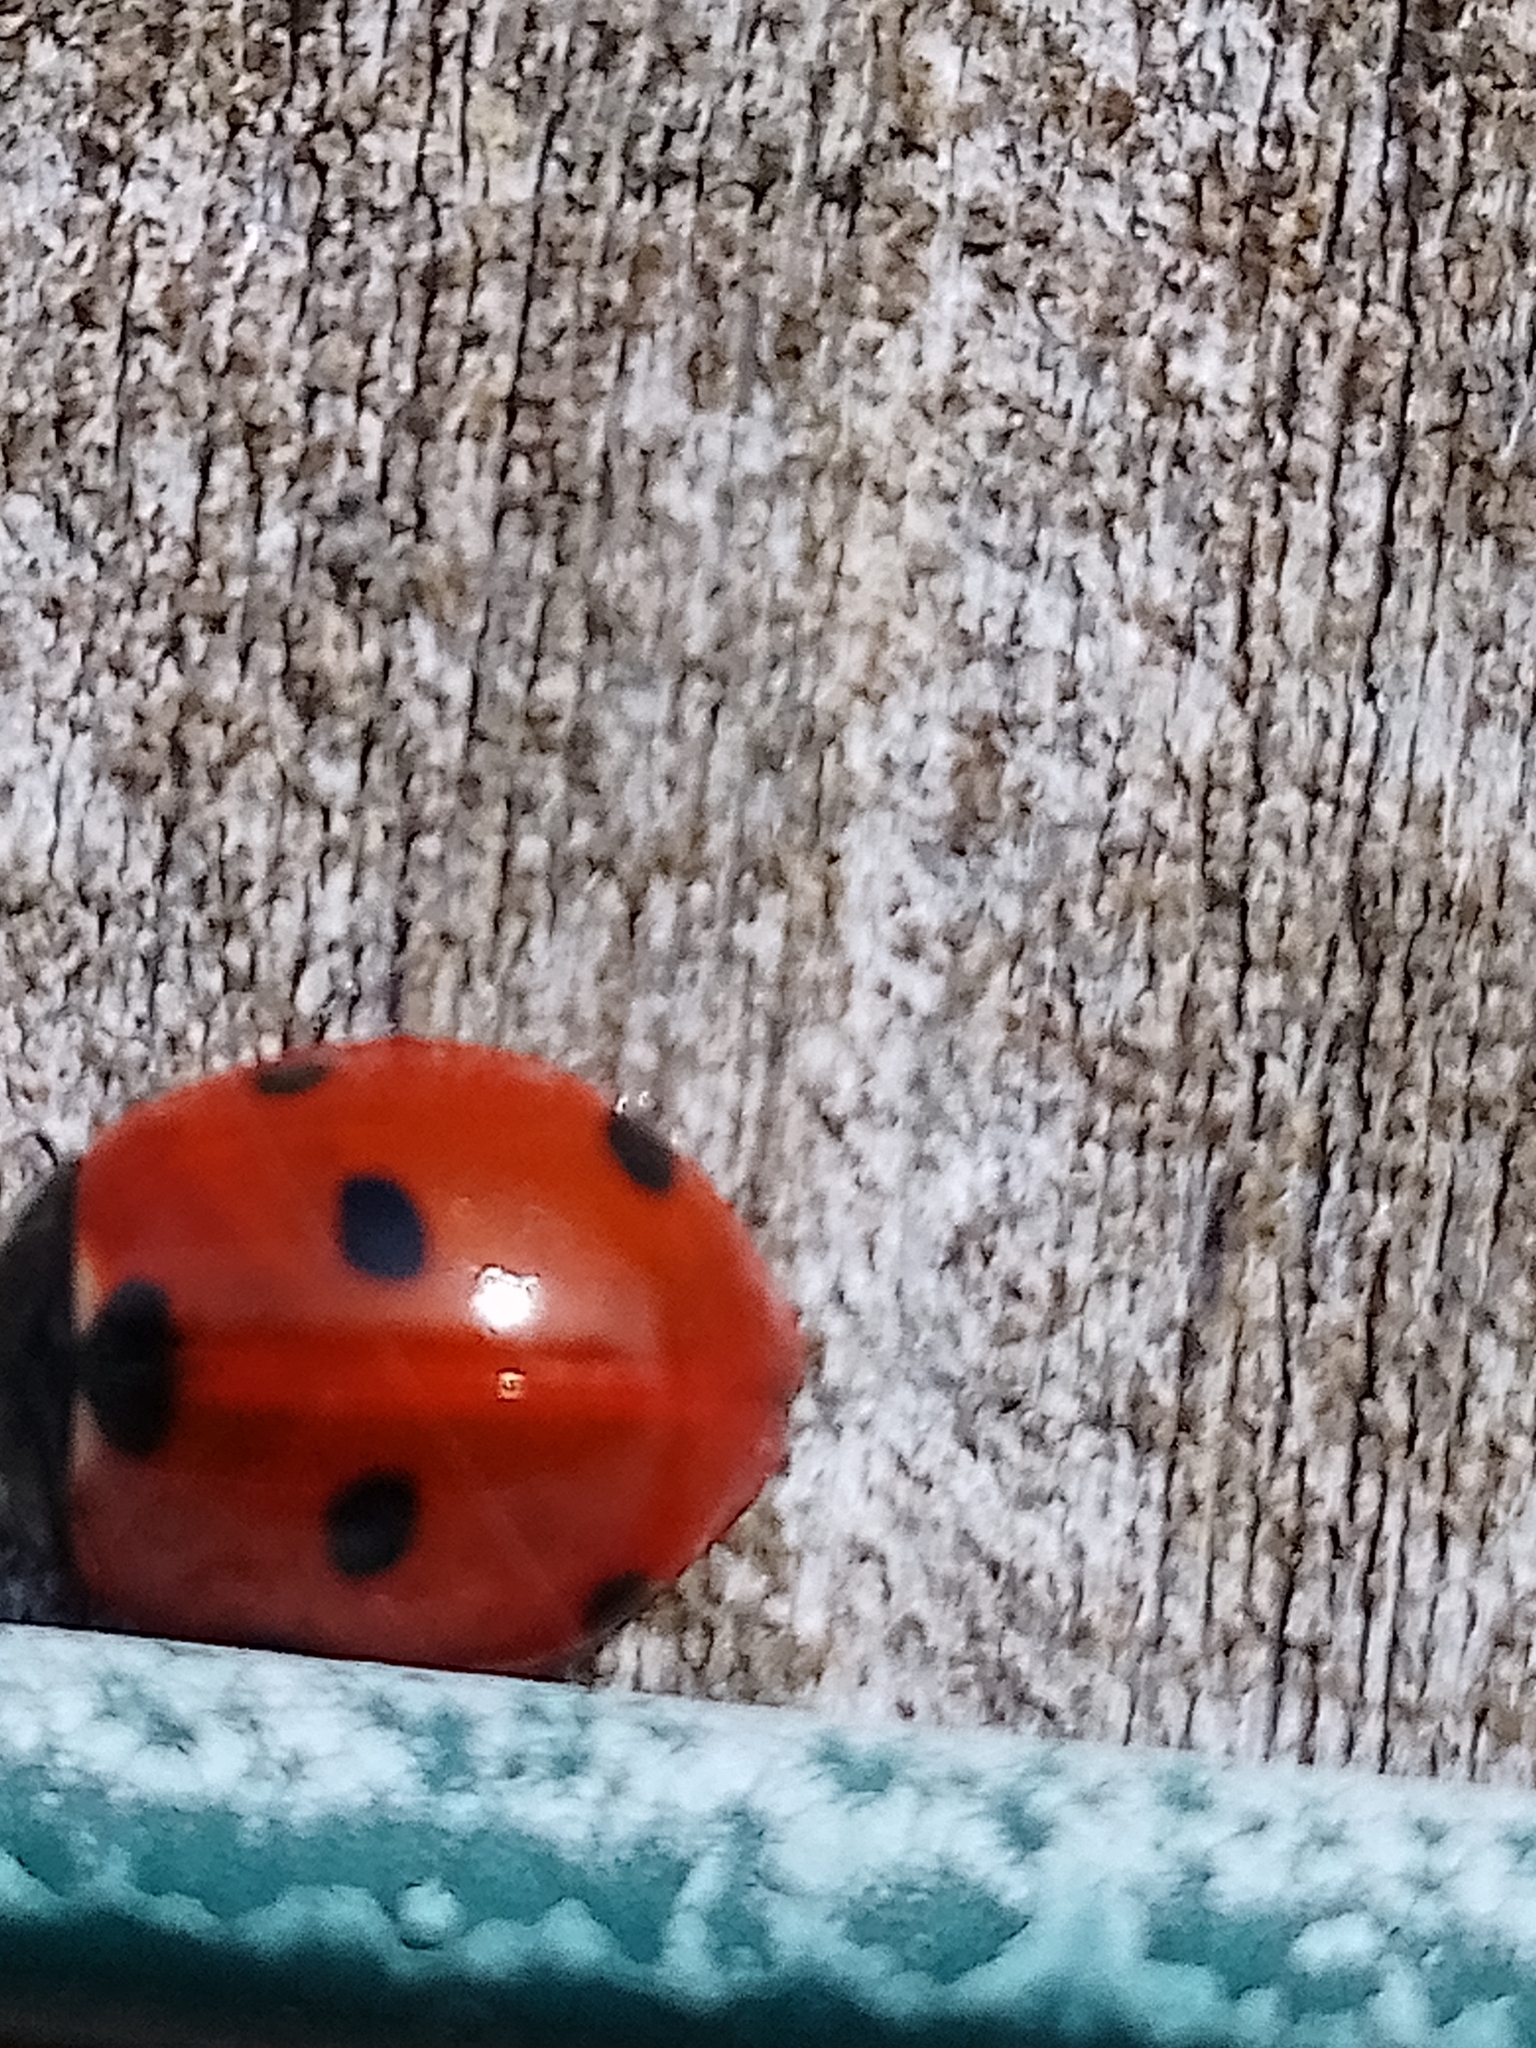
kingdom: Animalia
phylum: Arthropoda
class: Insecta
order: Coleoptera
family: Coccinellidae
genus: Coccinella
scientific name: Coccinella septempunctata
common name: Sevenspotted lady beetle
